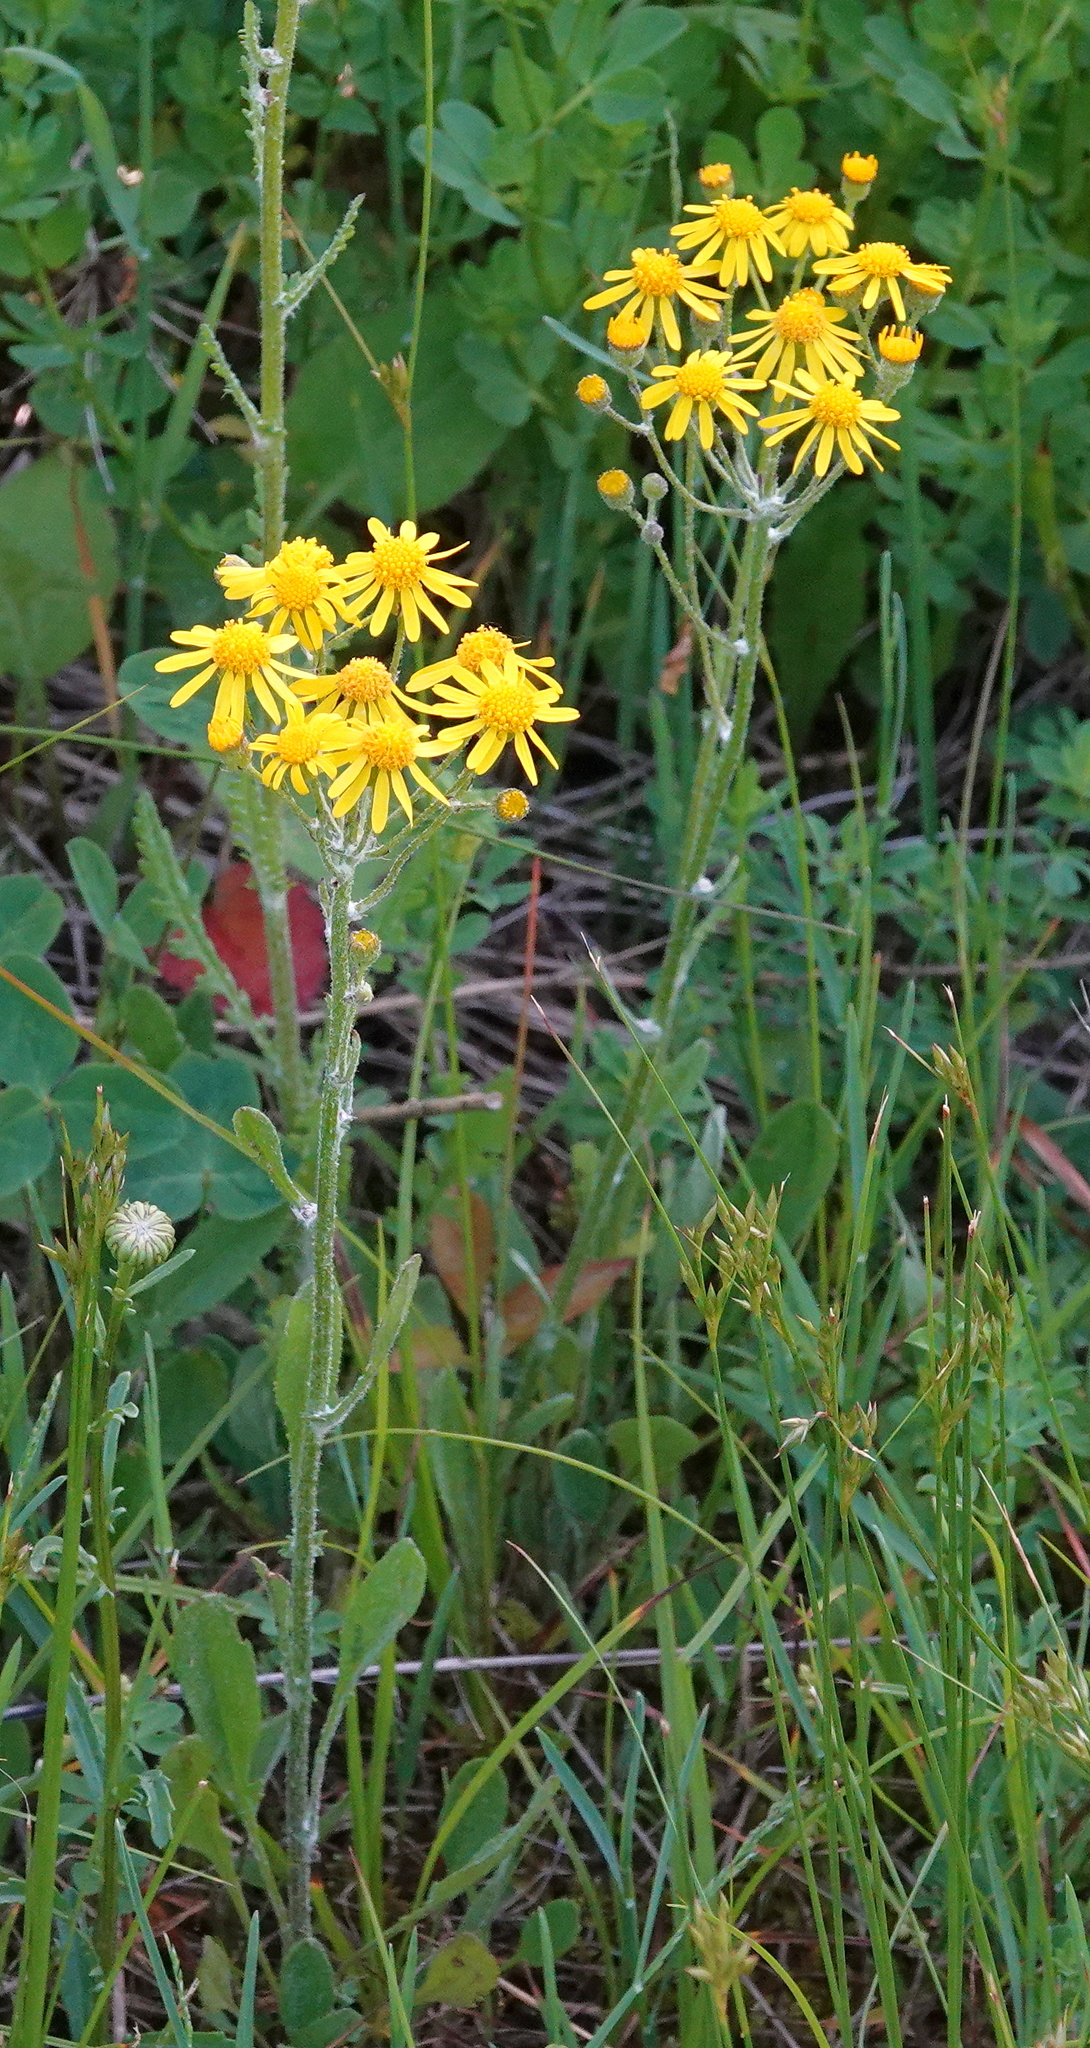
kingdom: Plantae
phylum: Tracheophyta
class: Magnoliopsida
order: Asterales
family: Asteraceae
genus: Packera
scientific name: Packera paupercula
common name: Balsam groundsel
